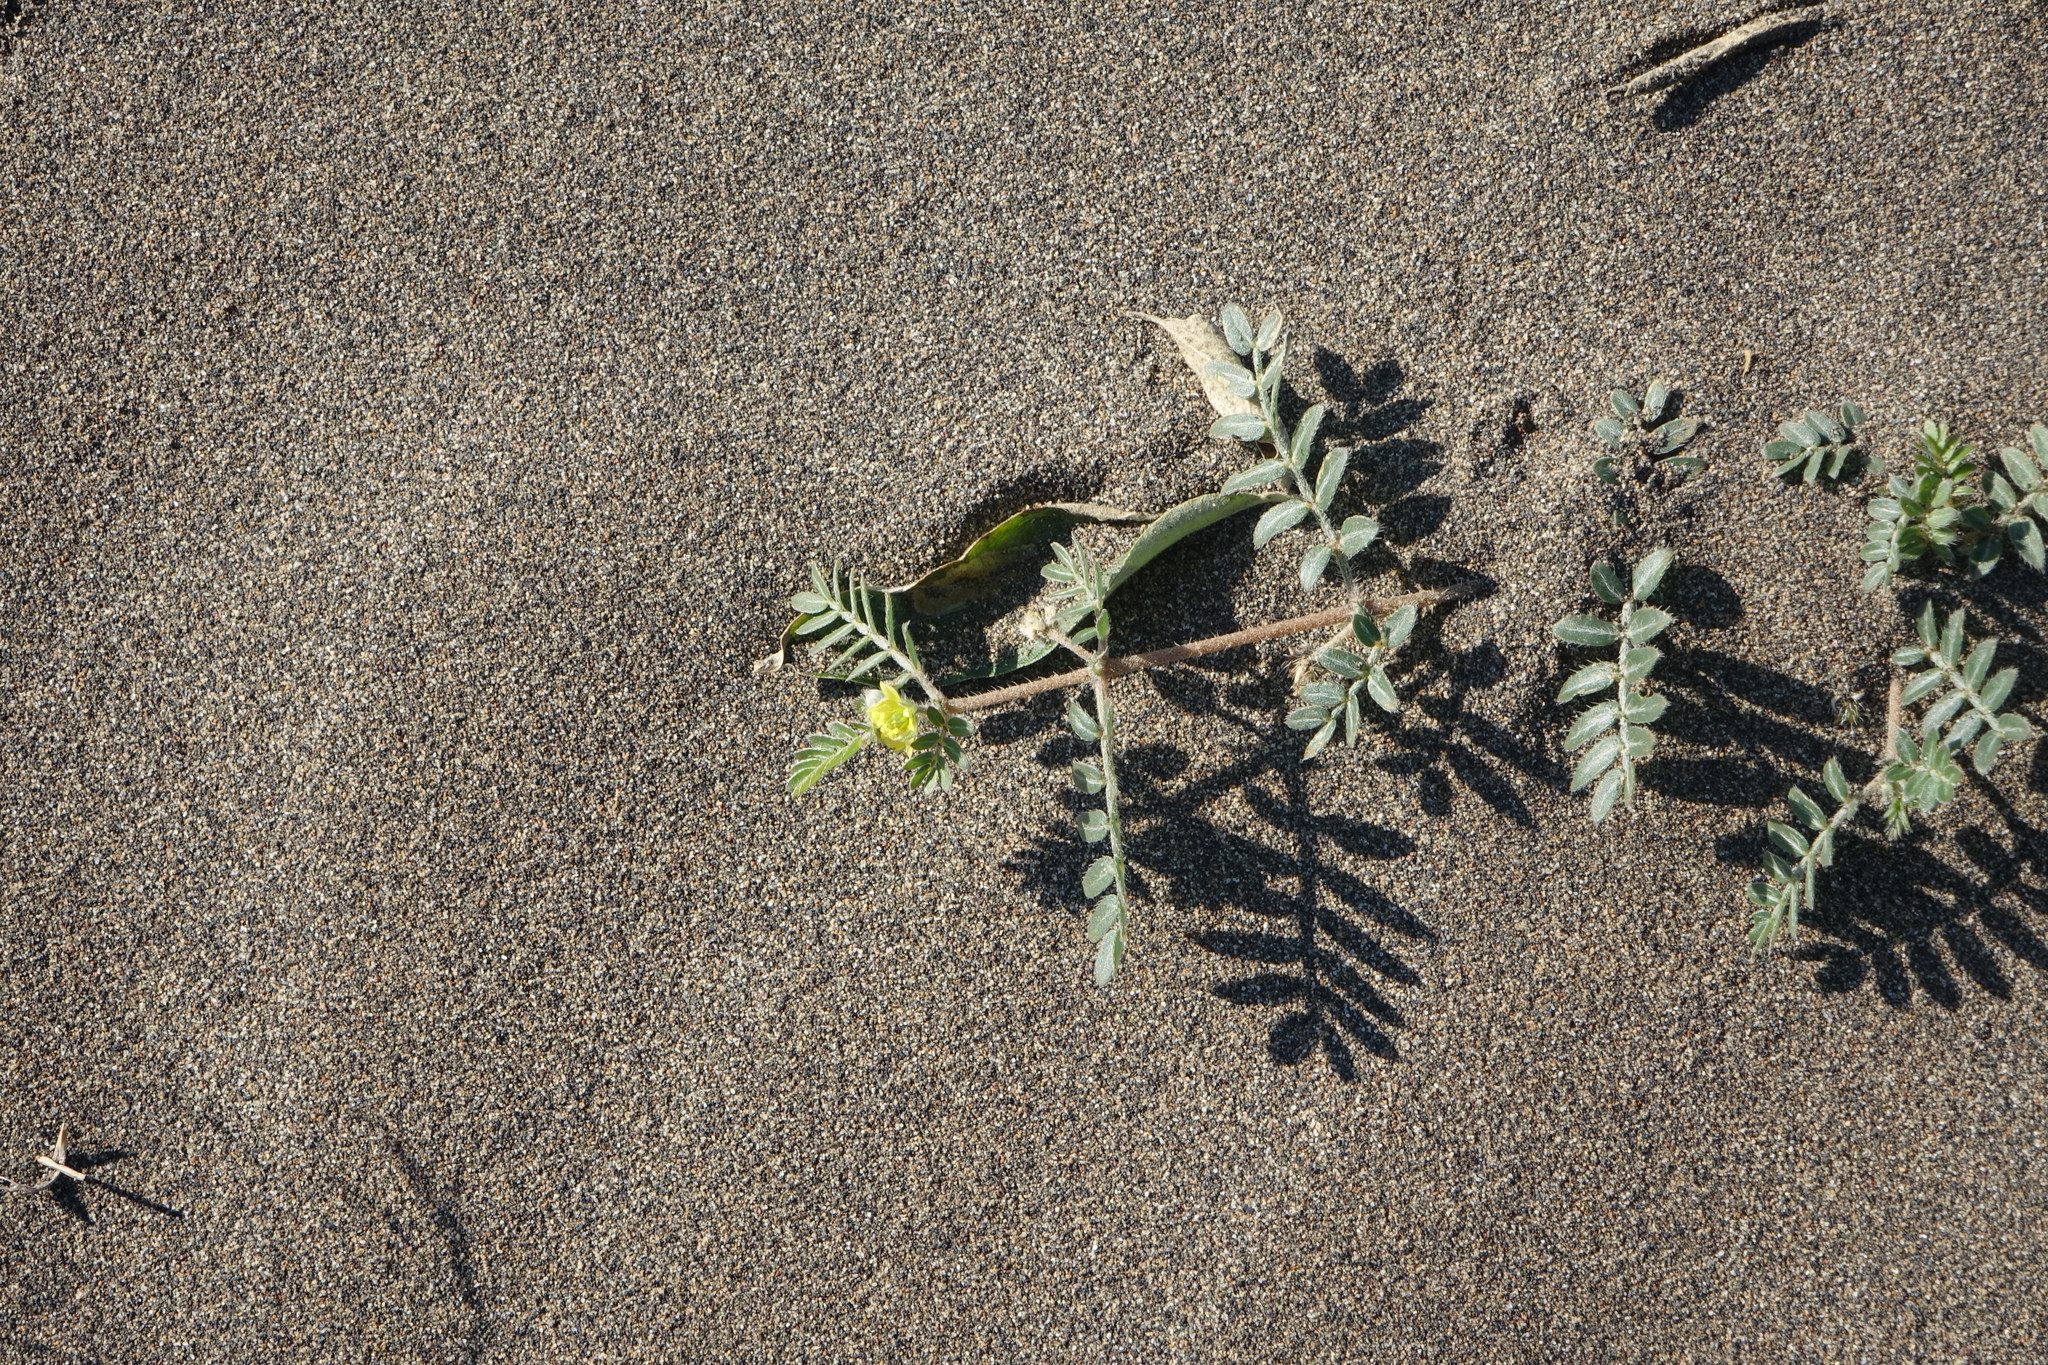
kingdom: Plantae
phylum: Tracheophyta
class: Magnoliopsida
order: Zygophyllales
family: Zygophyllaceae
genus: Tribulus
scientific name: Tribulus terrestris
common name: Puncturevine
